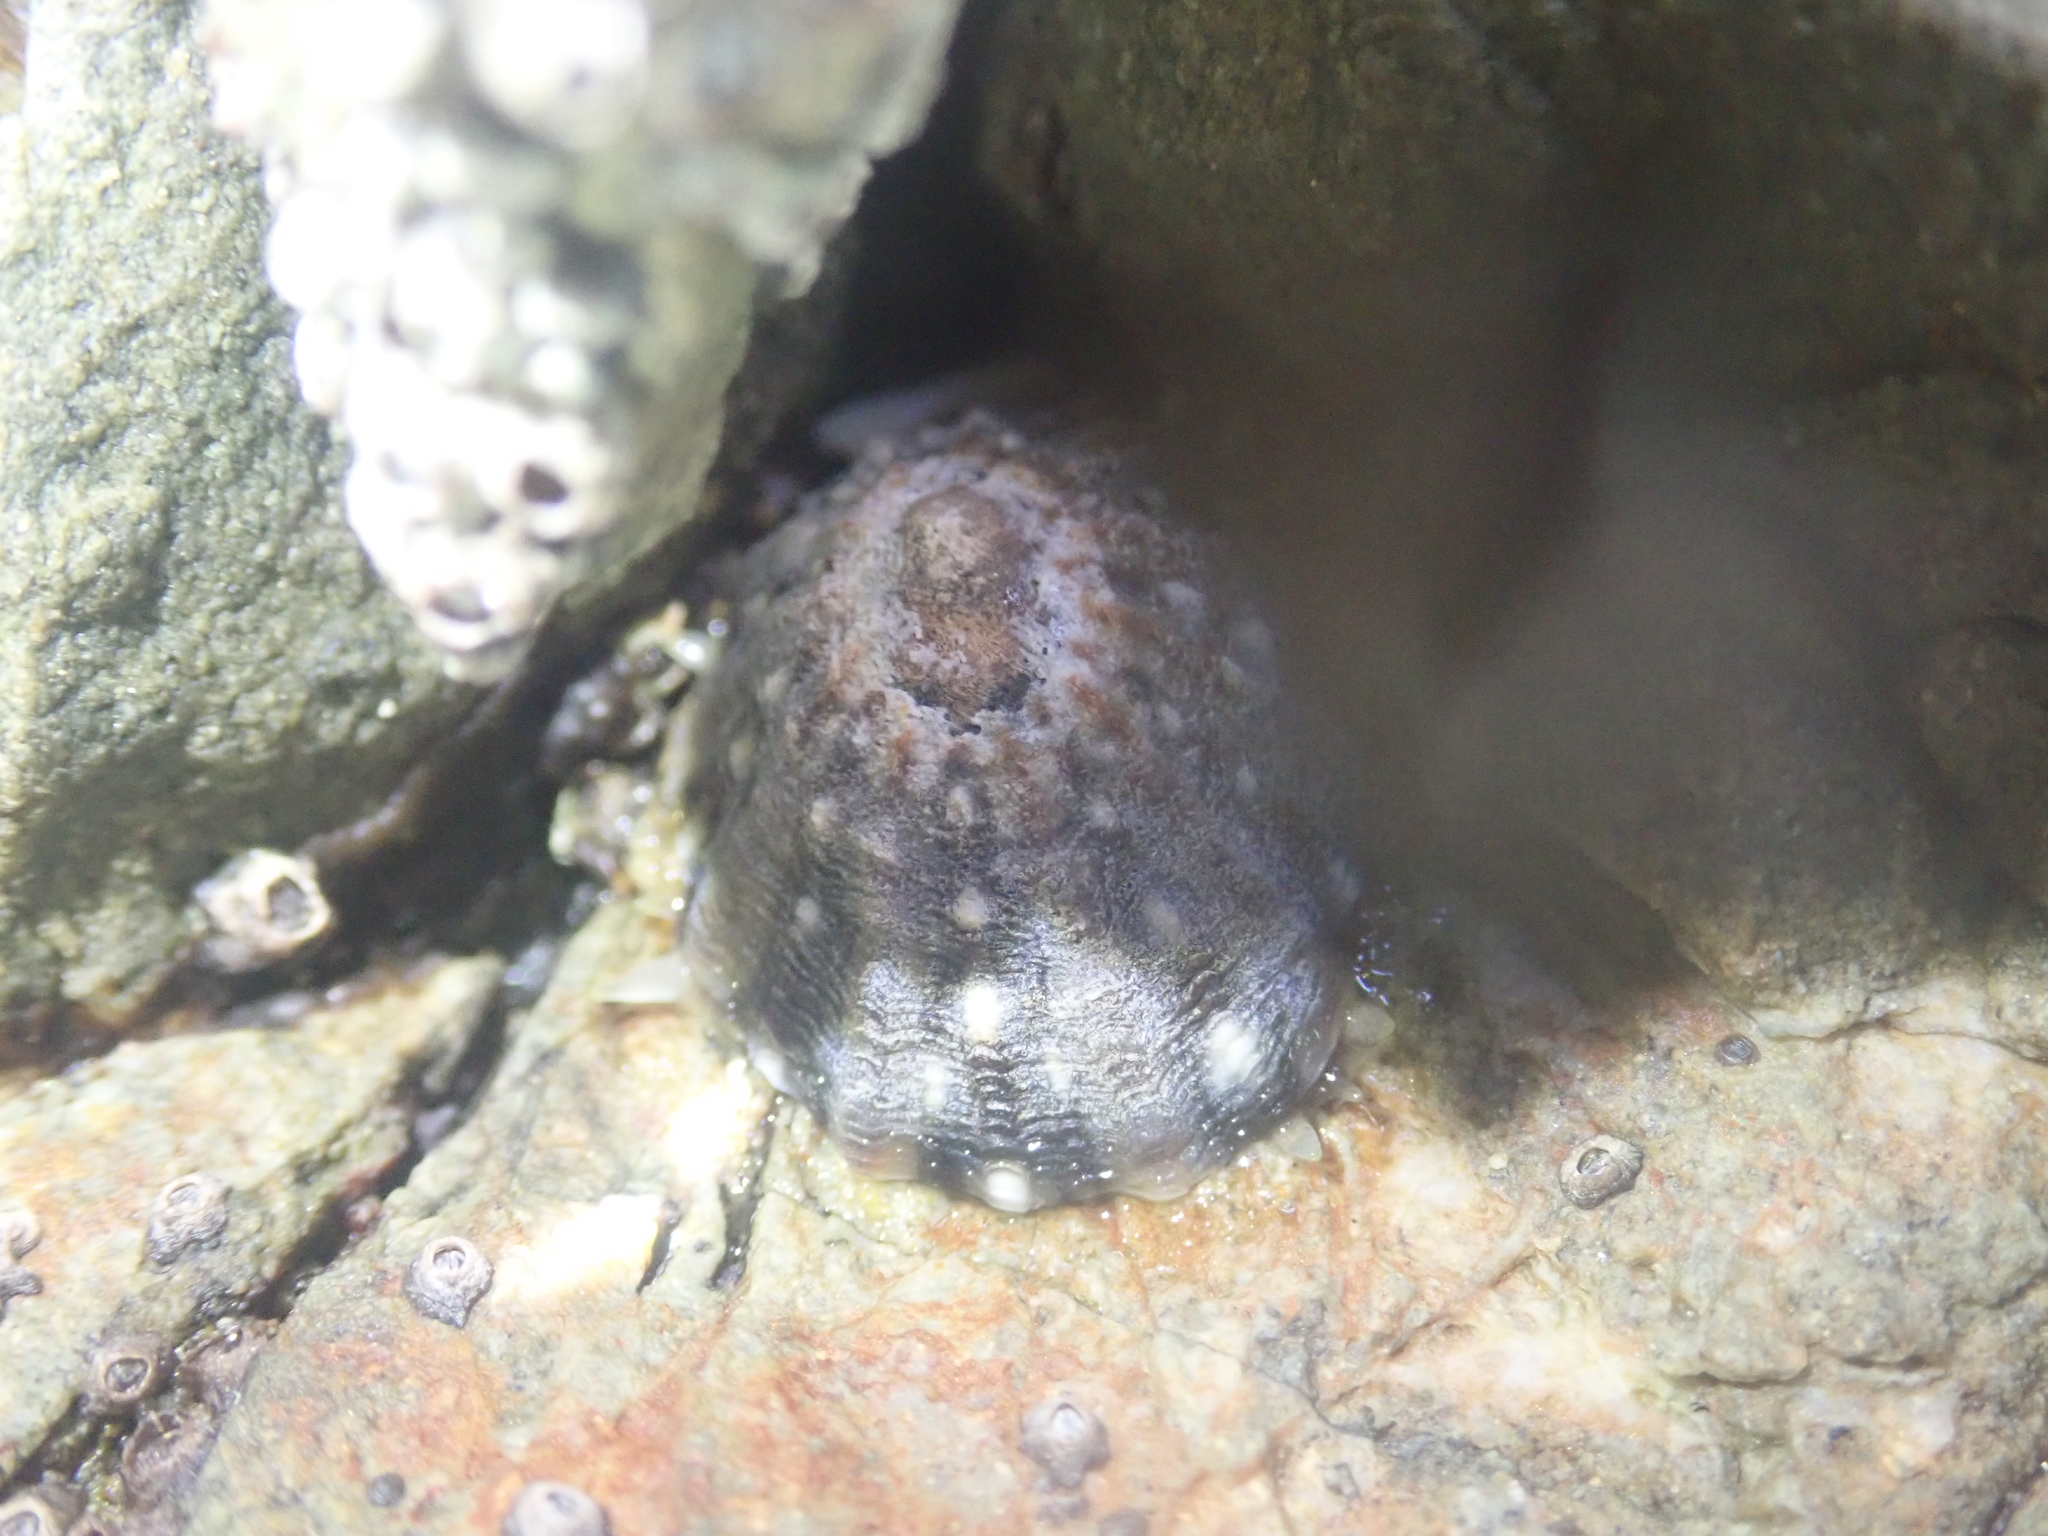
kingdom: Animalia
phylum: Mollusca
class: Gastropoda
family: Nacellidae
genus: Cellana
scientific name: Cellana ornata
